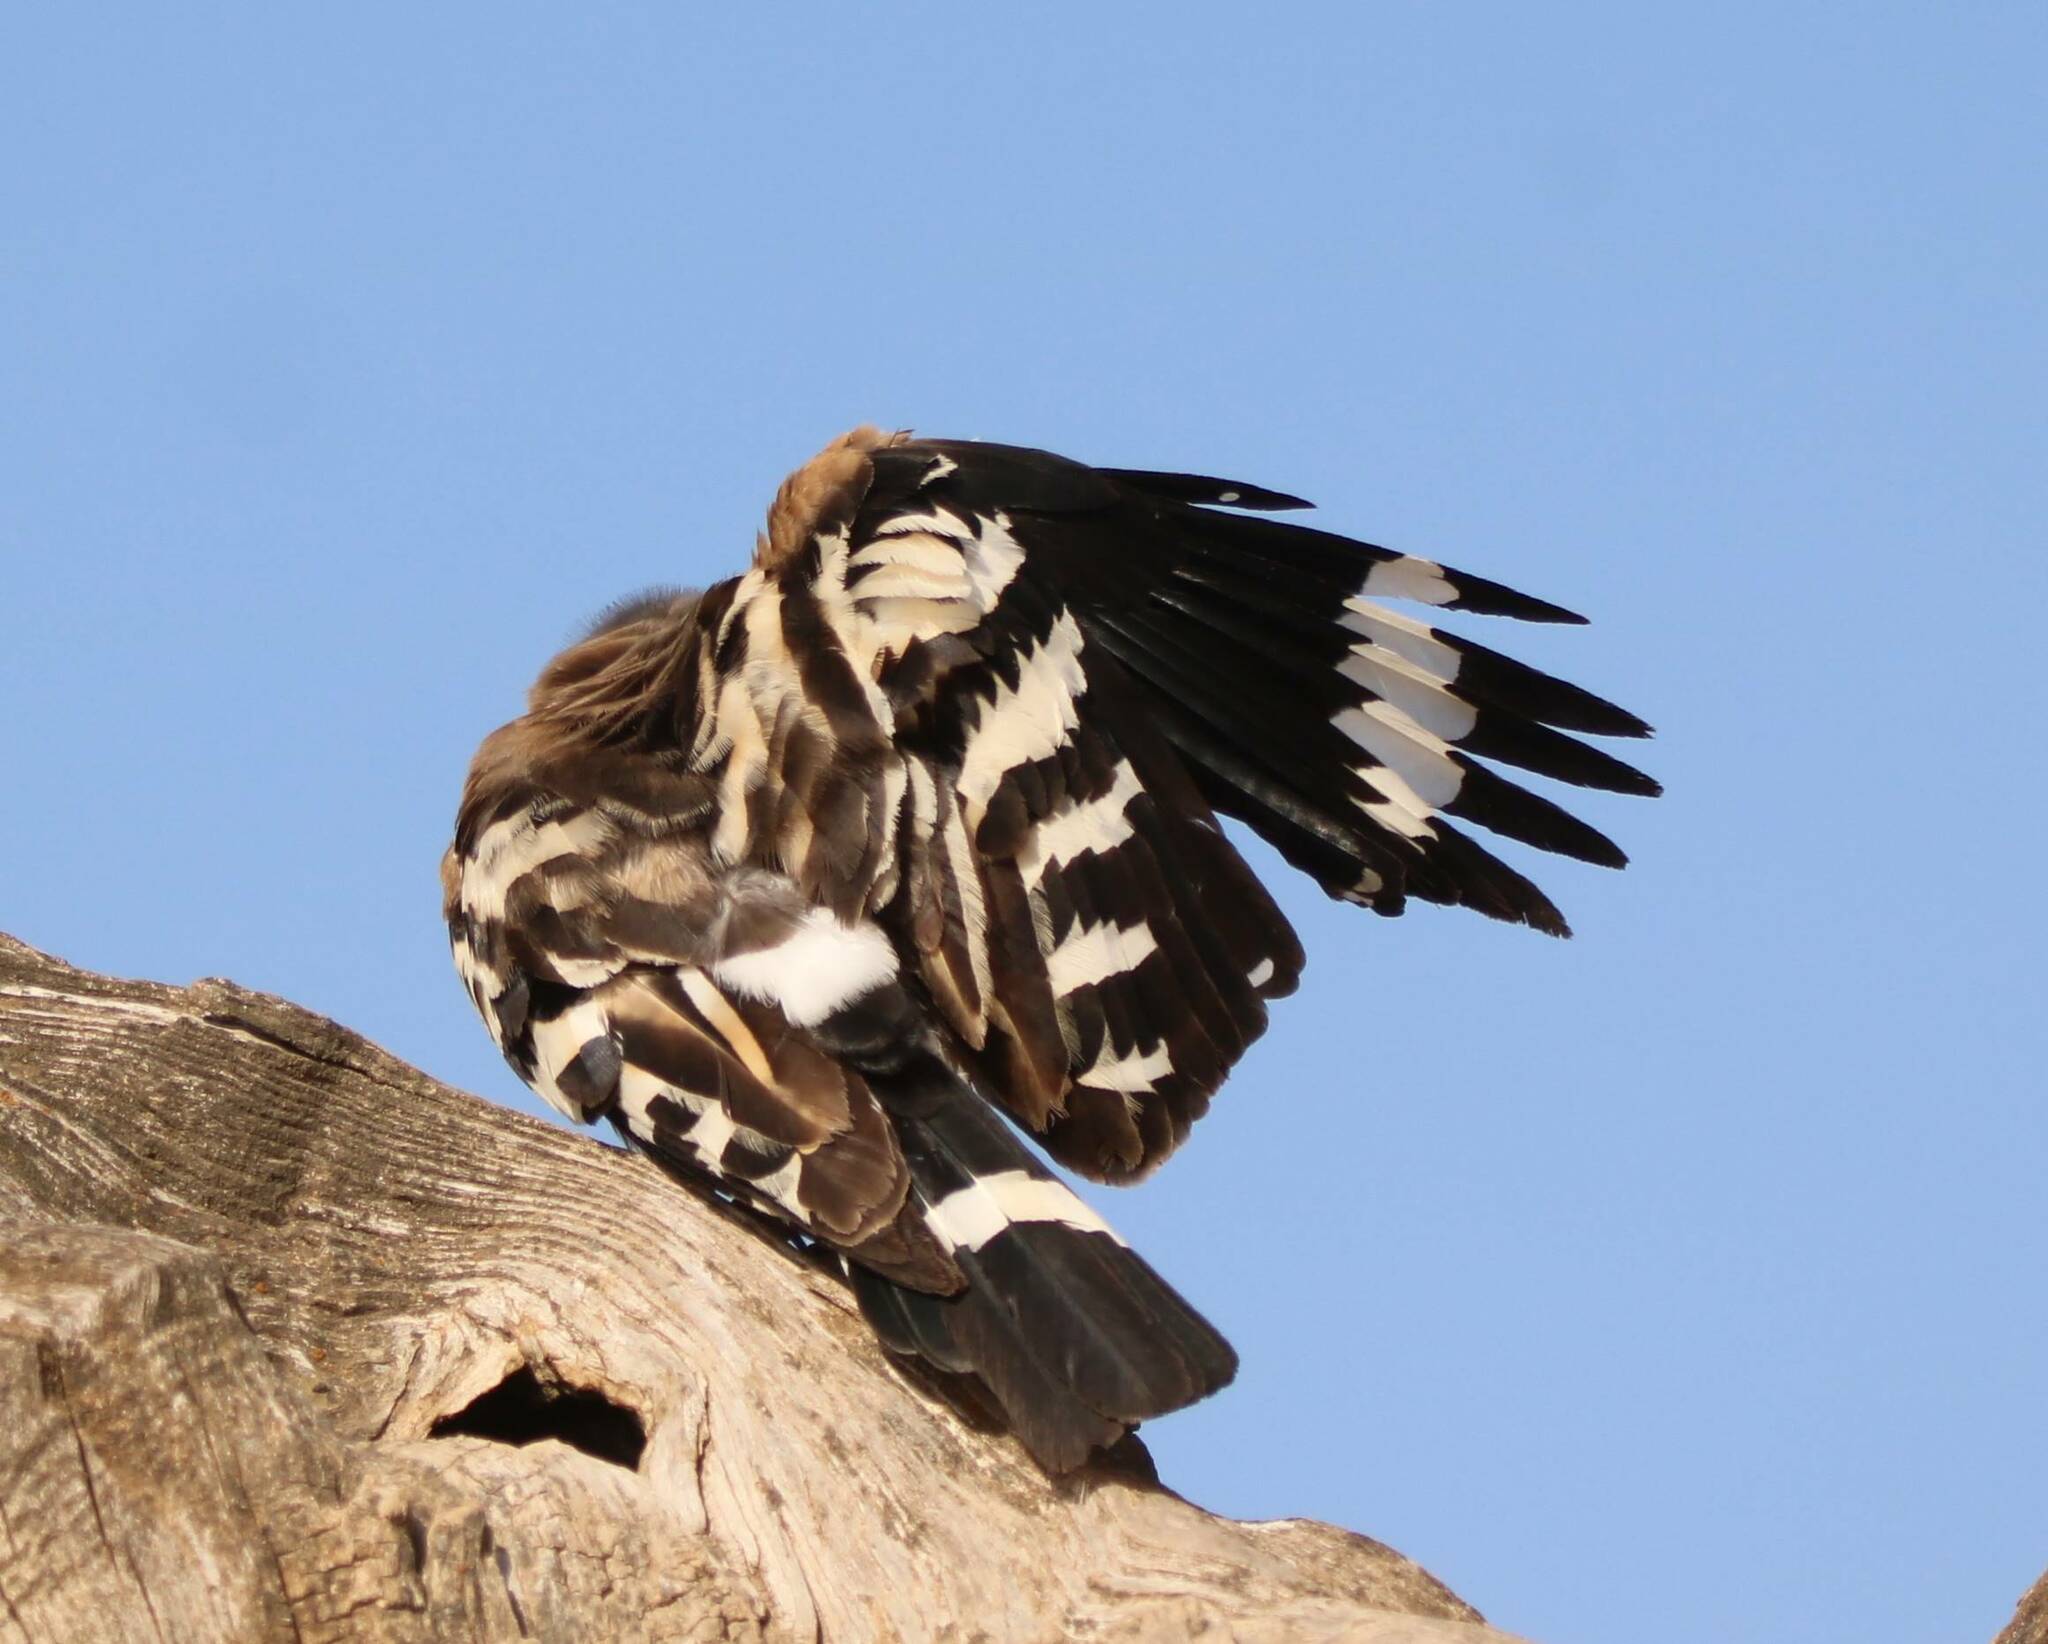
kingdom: Animalia
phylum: Chordata
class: Aves
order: Bucerotiformes
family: Upupidae
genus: Upupa
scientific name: Upupa epops
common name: Eurasian hoopoe
